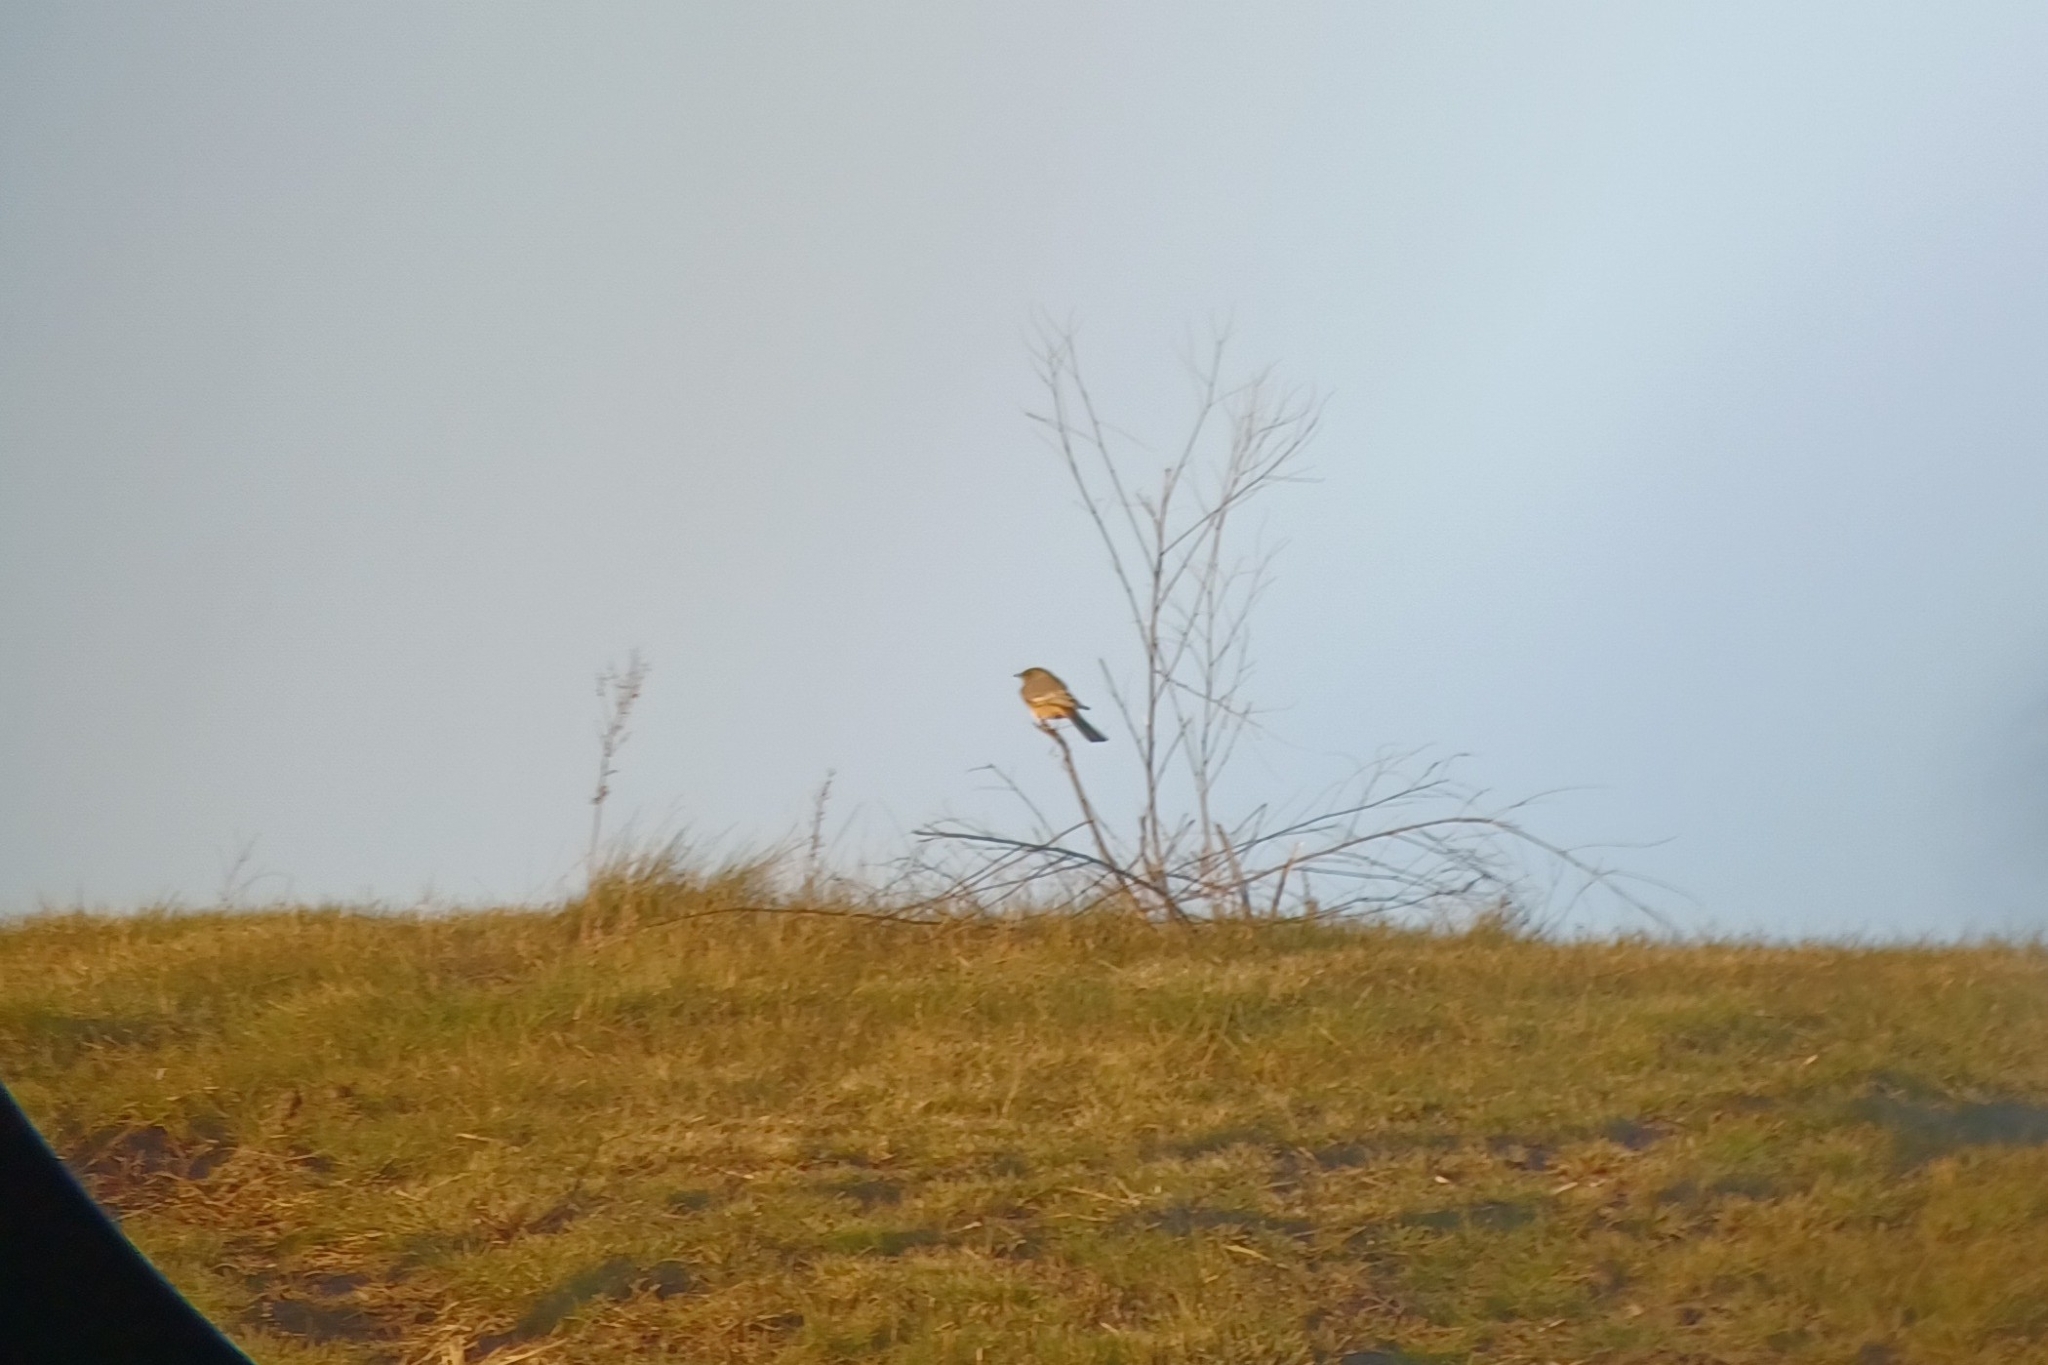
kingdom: Animalia
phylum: Chordata
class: Aves
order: Passeriformes
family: Tyrannidae
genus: Sayornis
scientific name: Sayornis saya
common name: Say's phoebe
